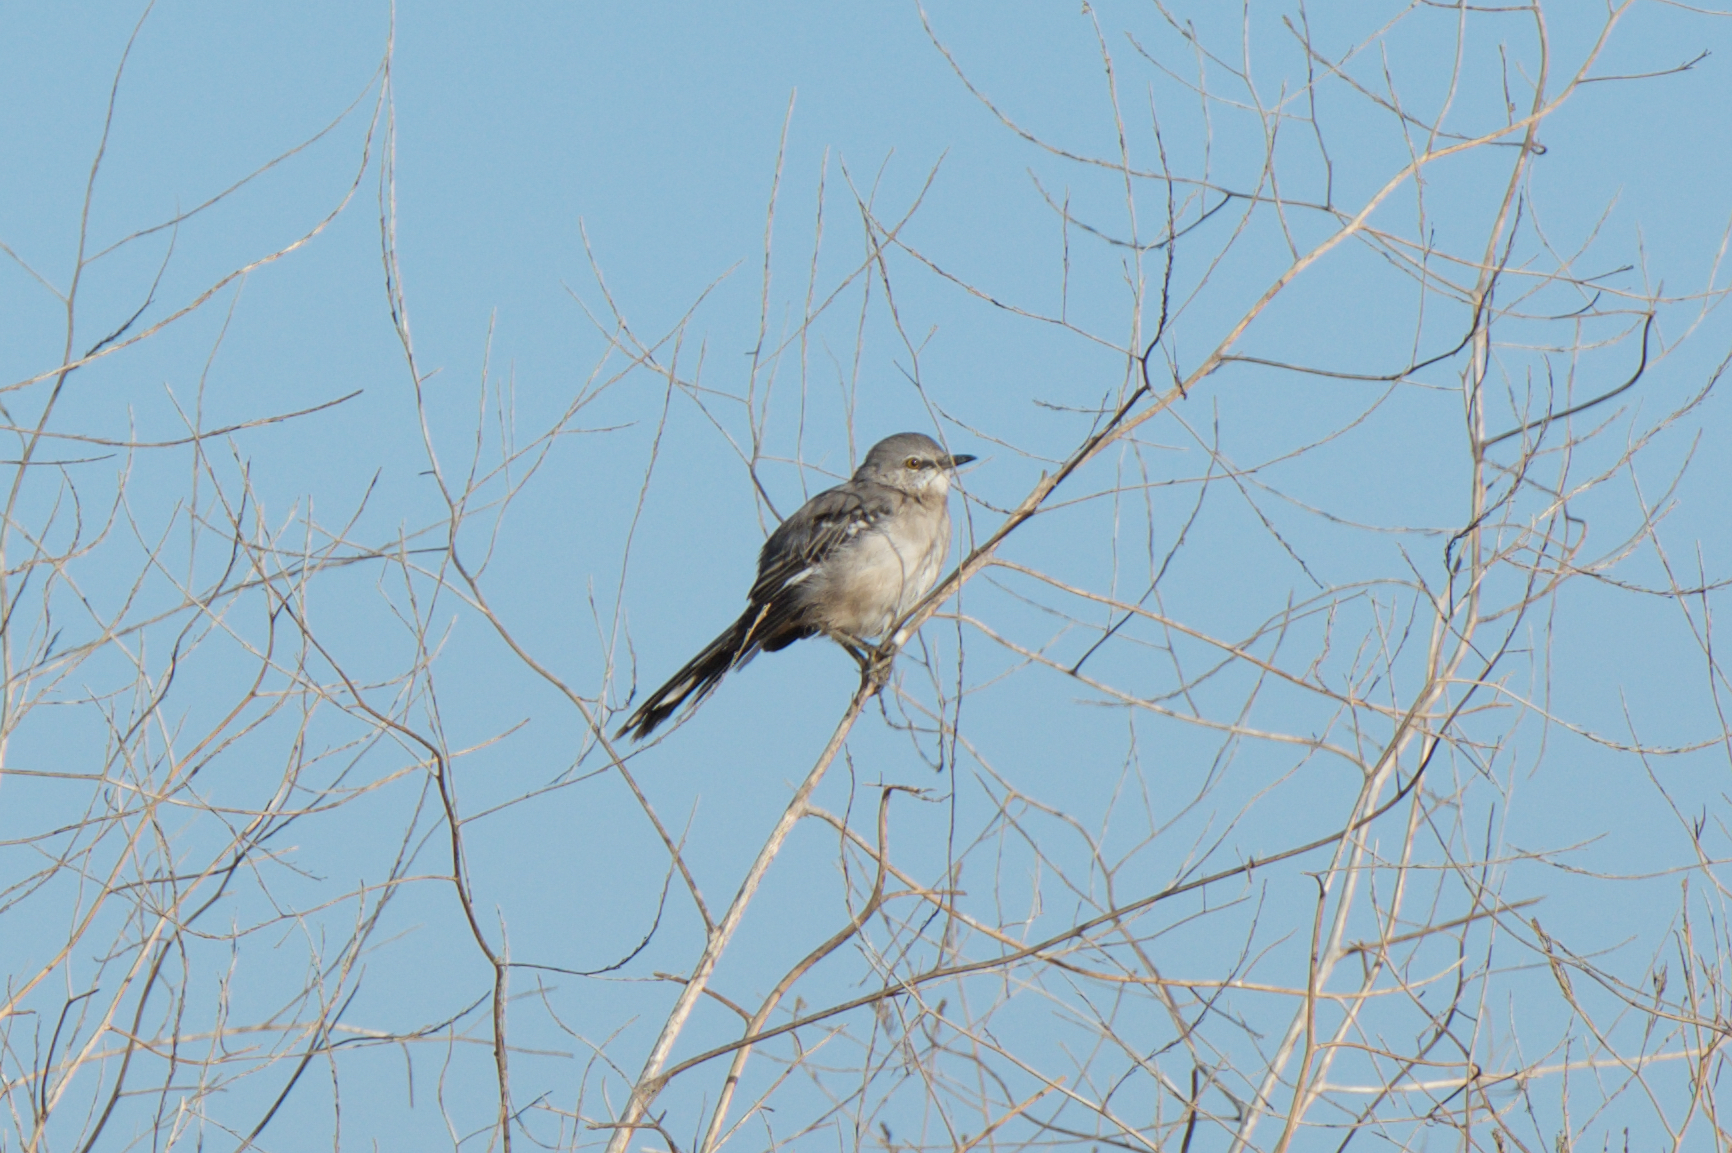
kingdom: Animalia
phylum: Chordata
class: Aves
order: Passeriformes
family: Mimidae
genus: Mimus
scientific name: Mimus polyglottos
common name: Northern mockingbird
